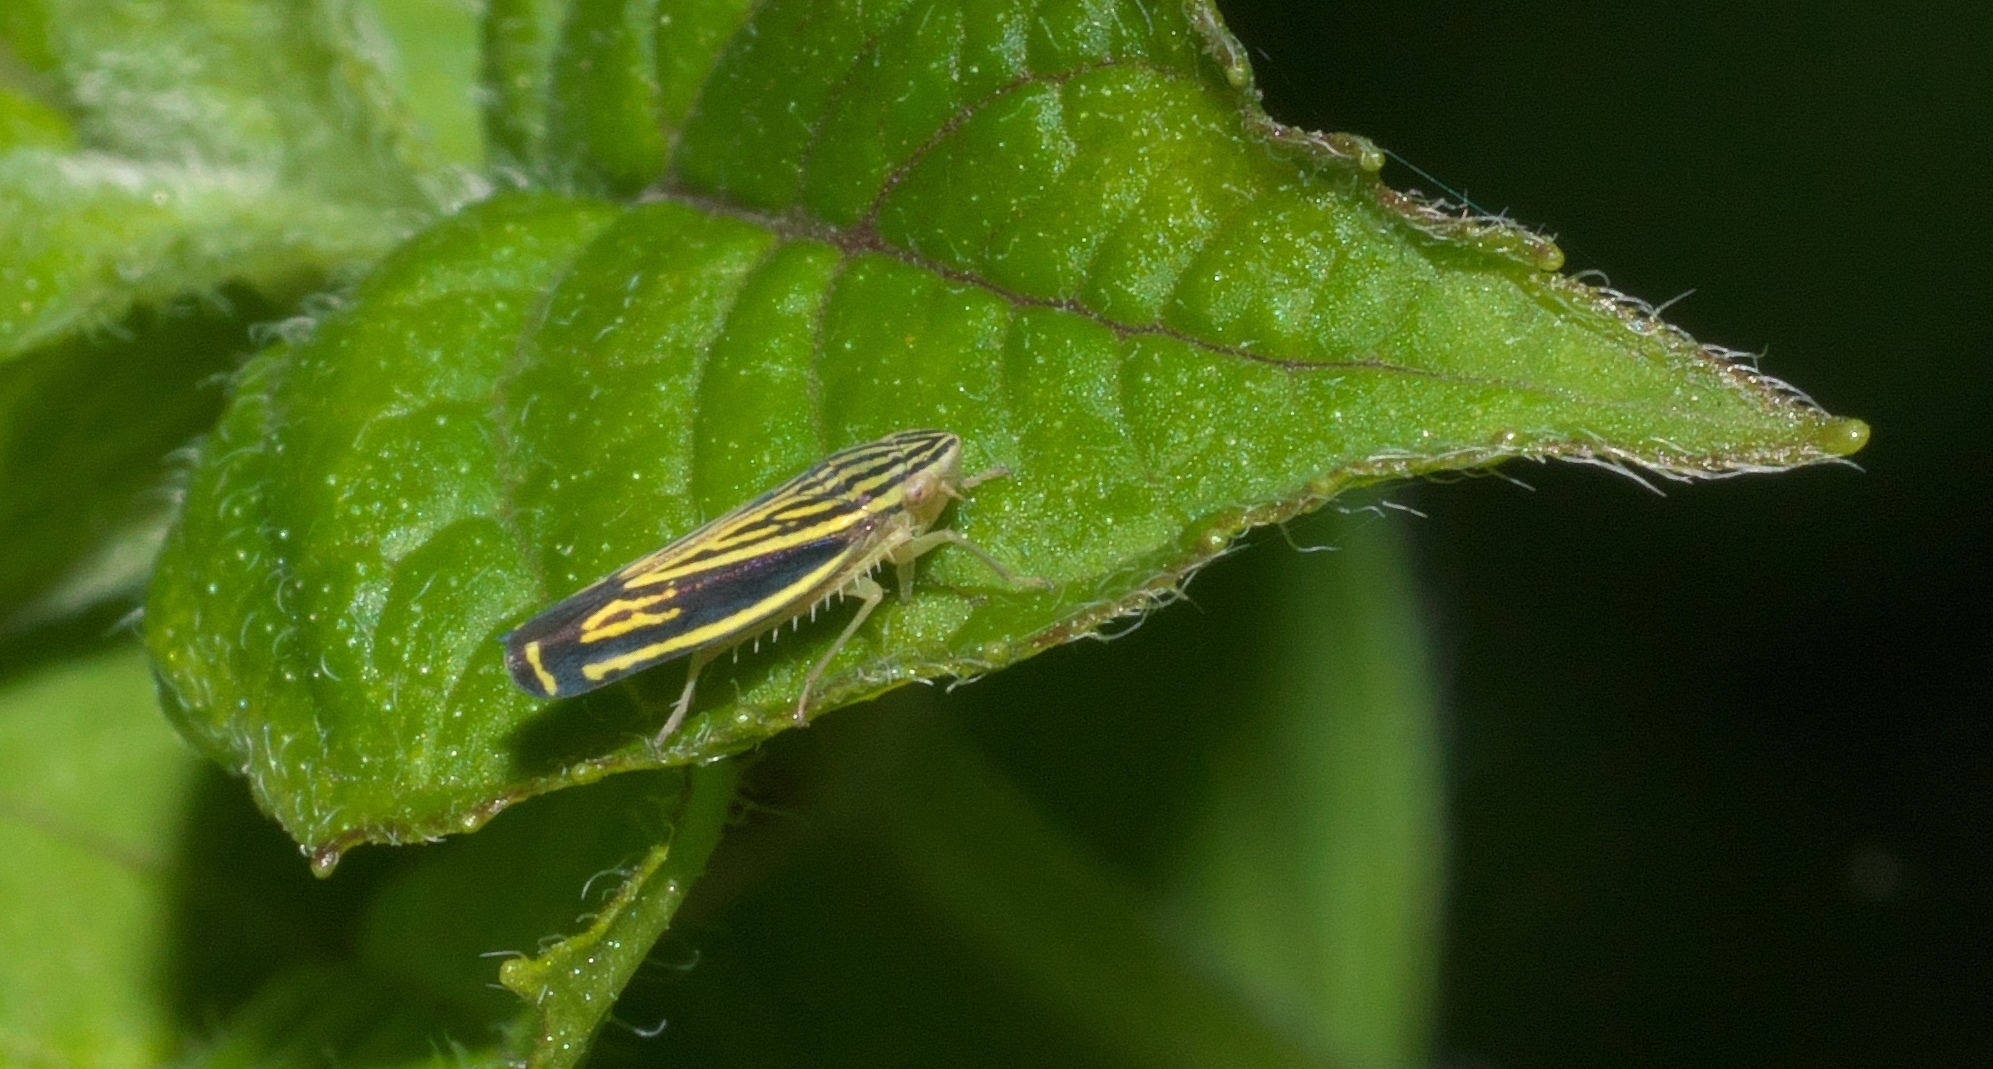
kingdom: Animalia
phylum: Arthropoda
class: Insecta
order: Hemiptera
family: Cicadellidae
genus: Sibovia
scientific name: Sibovia occatoria
